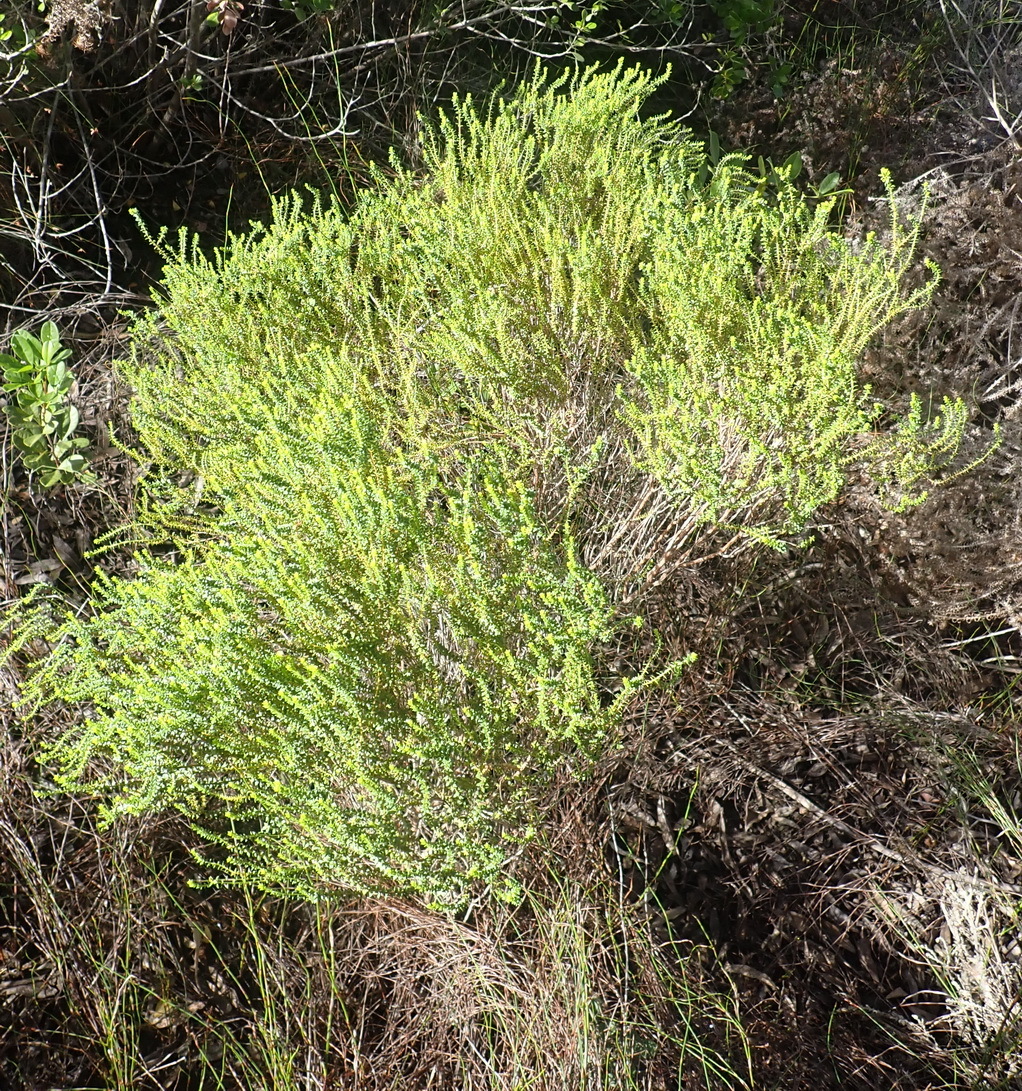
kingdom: Plantae
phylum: Tracheophyta
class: Magnoliopsida
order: Sapindales
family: Rutaceae
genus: Agathosma
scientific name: Agathosma capensis
